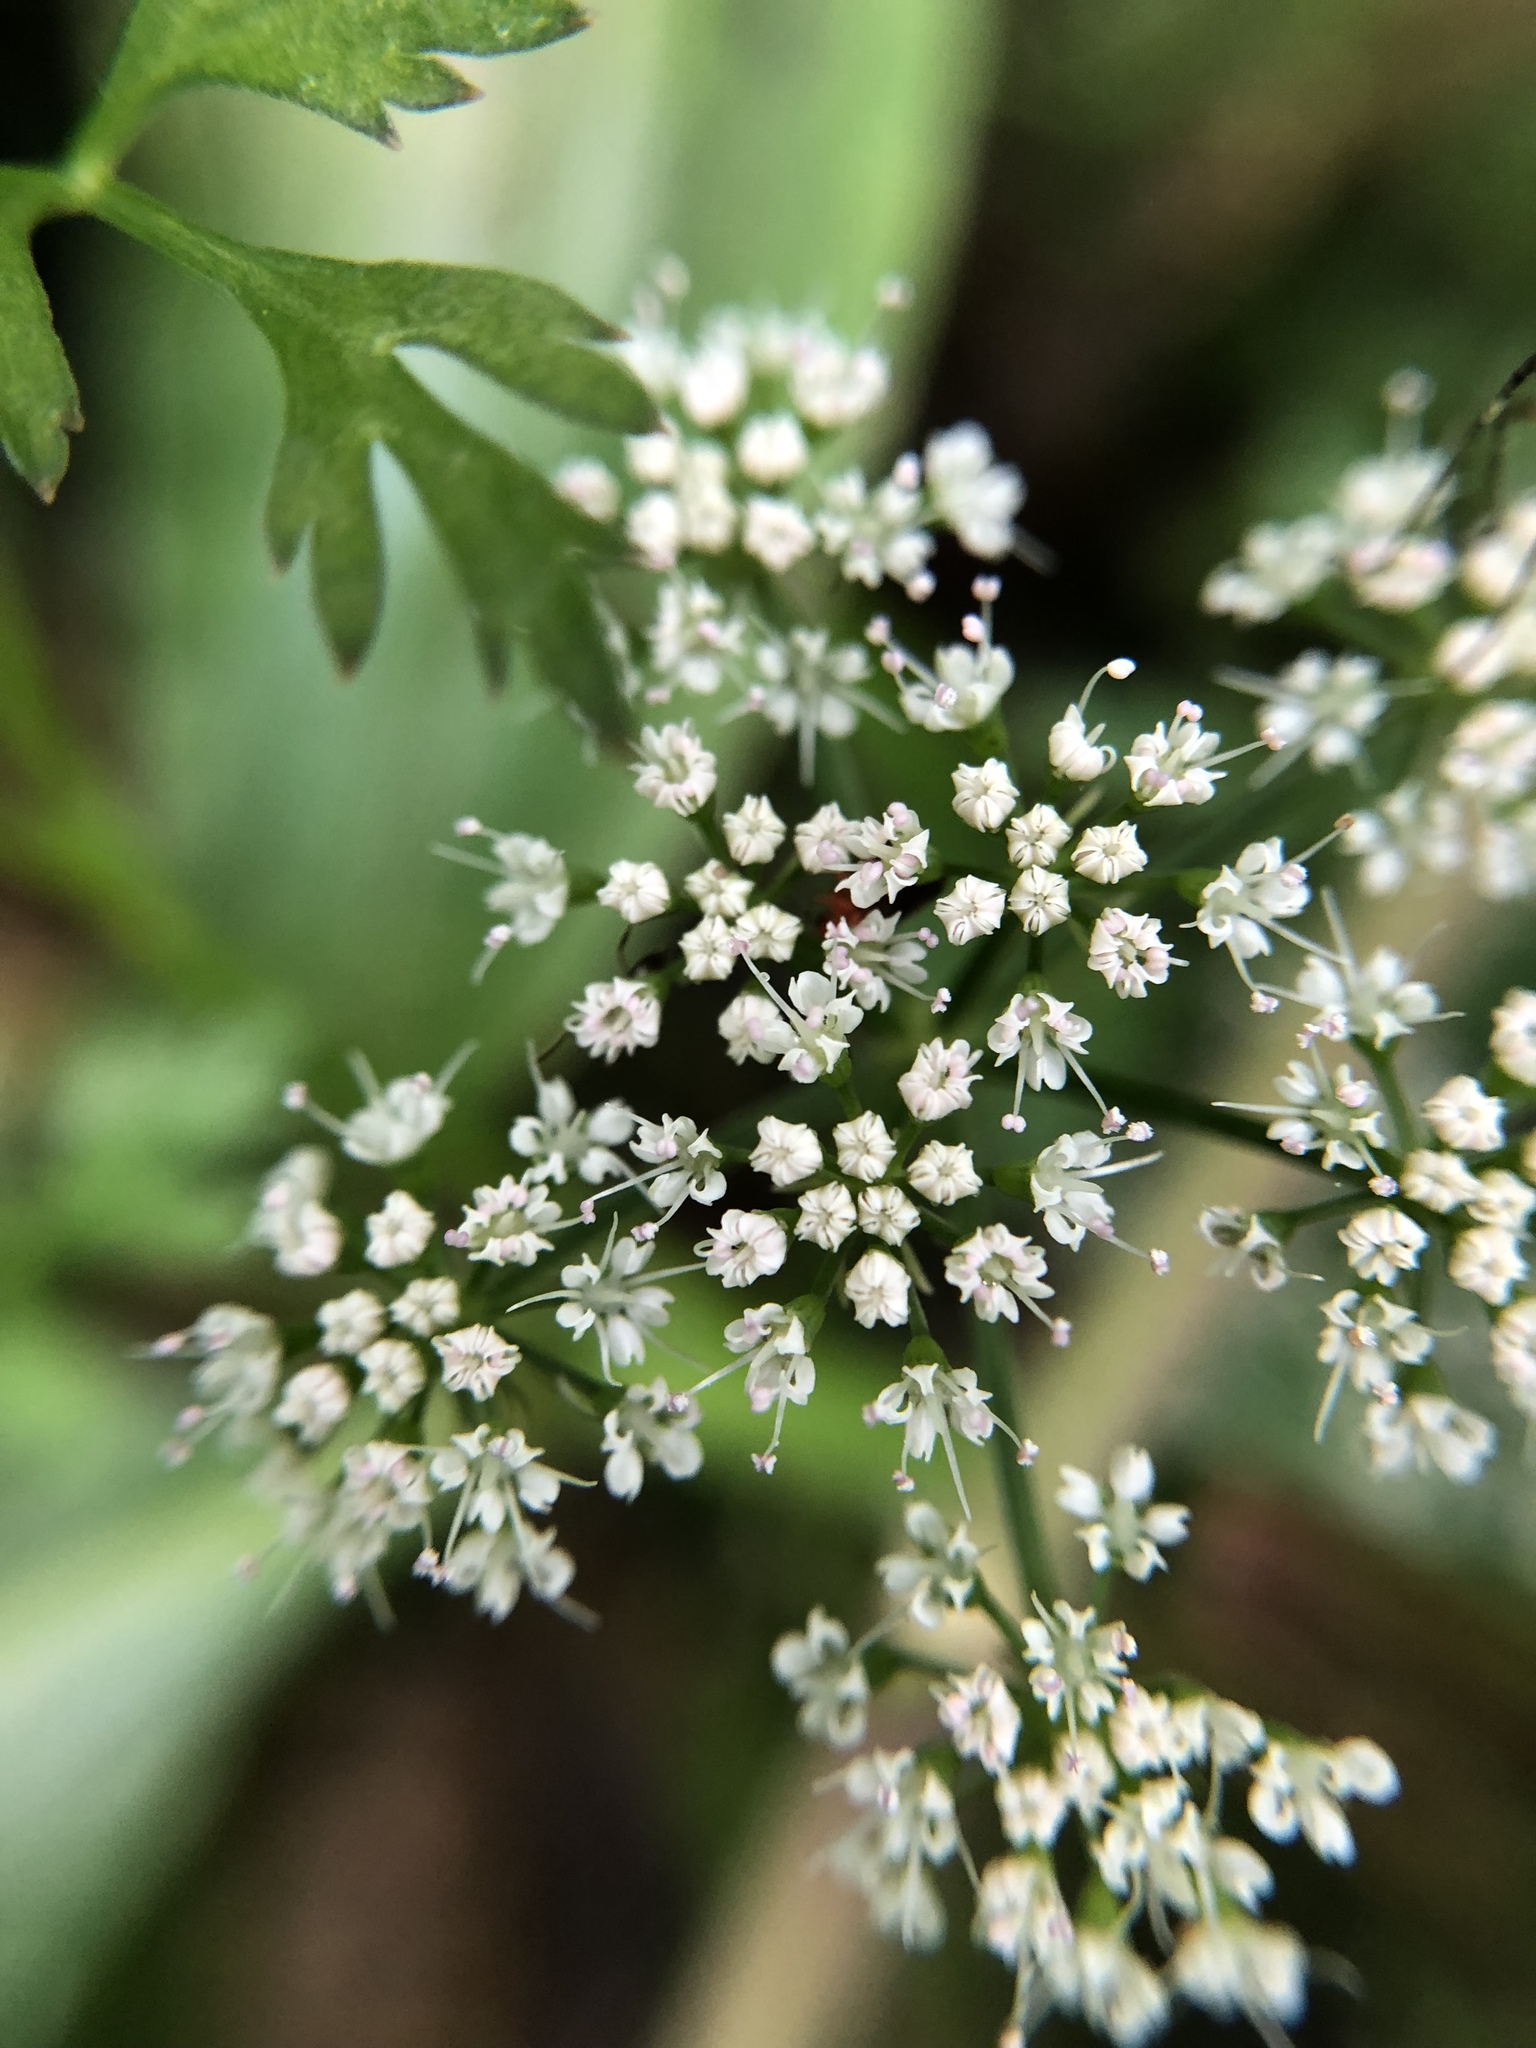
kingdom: Plantae
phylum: Tracheophyta
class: Magnoliopsida
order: Apiales
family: Apiaceae
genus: Oenanthe
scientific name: Oenanthe javanica
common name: Java water-dropwort
